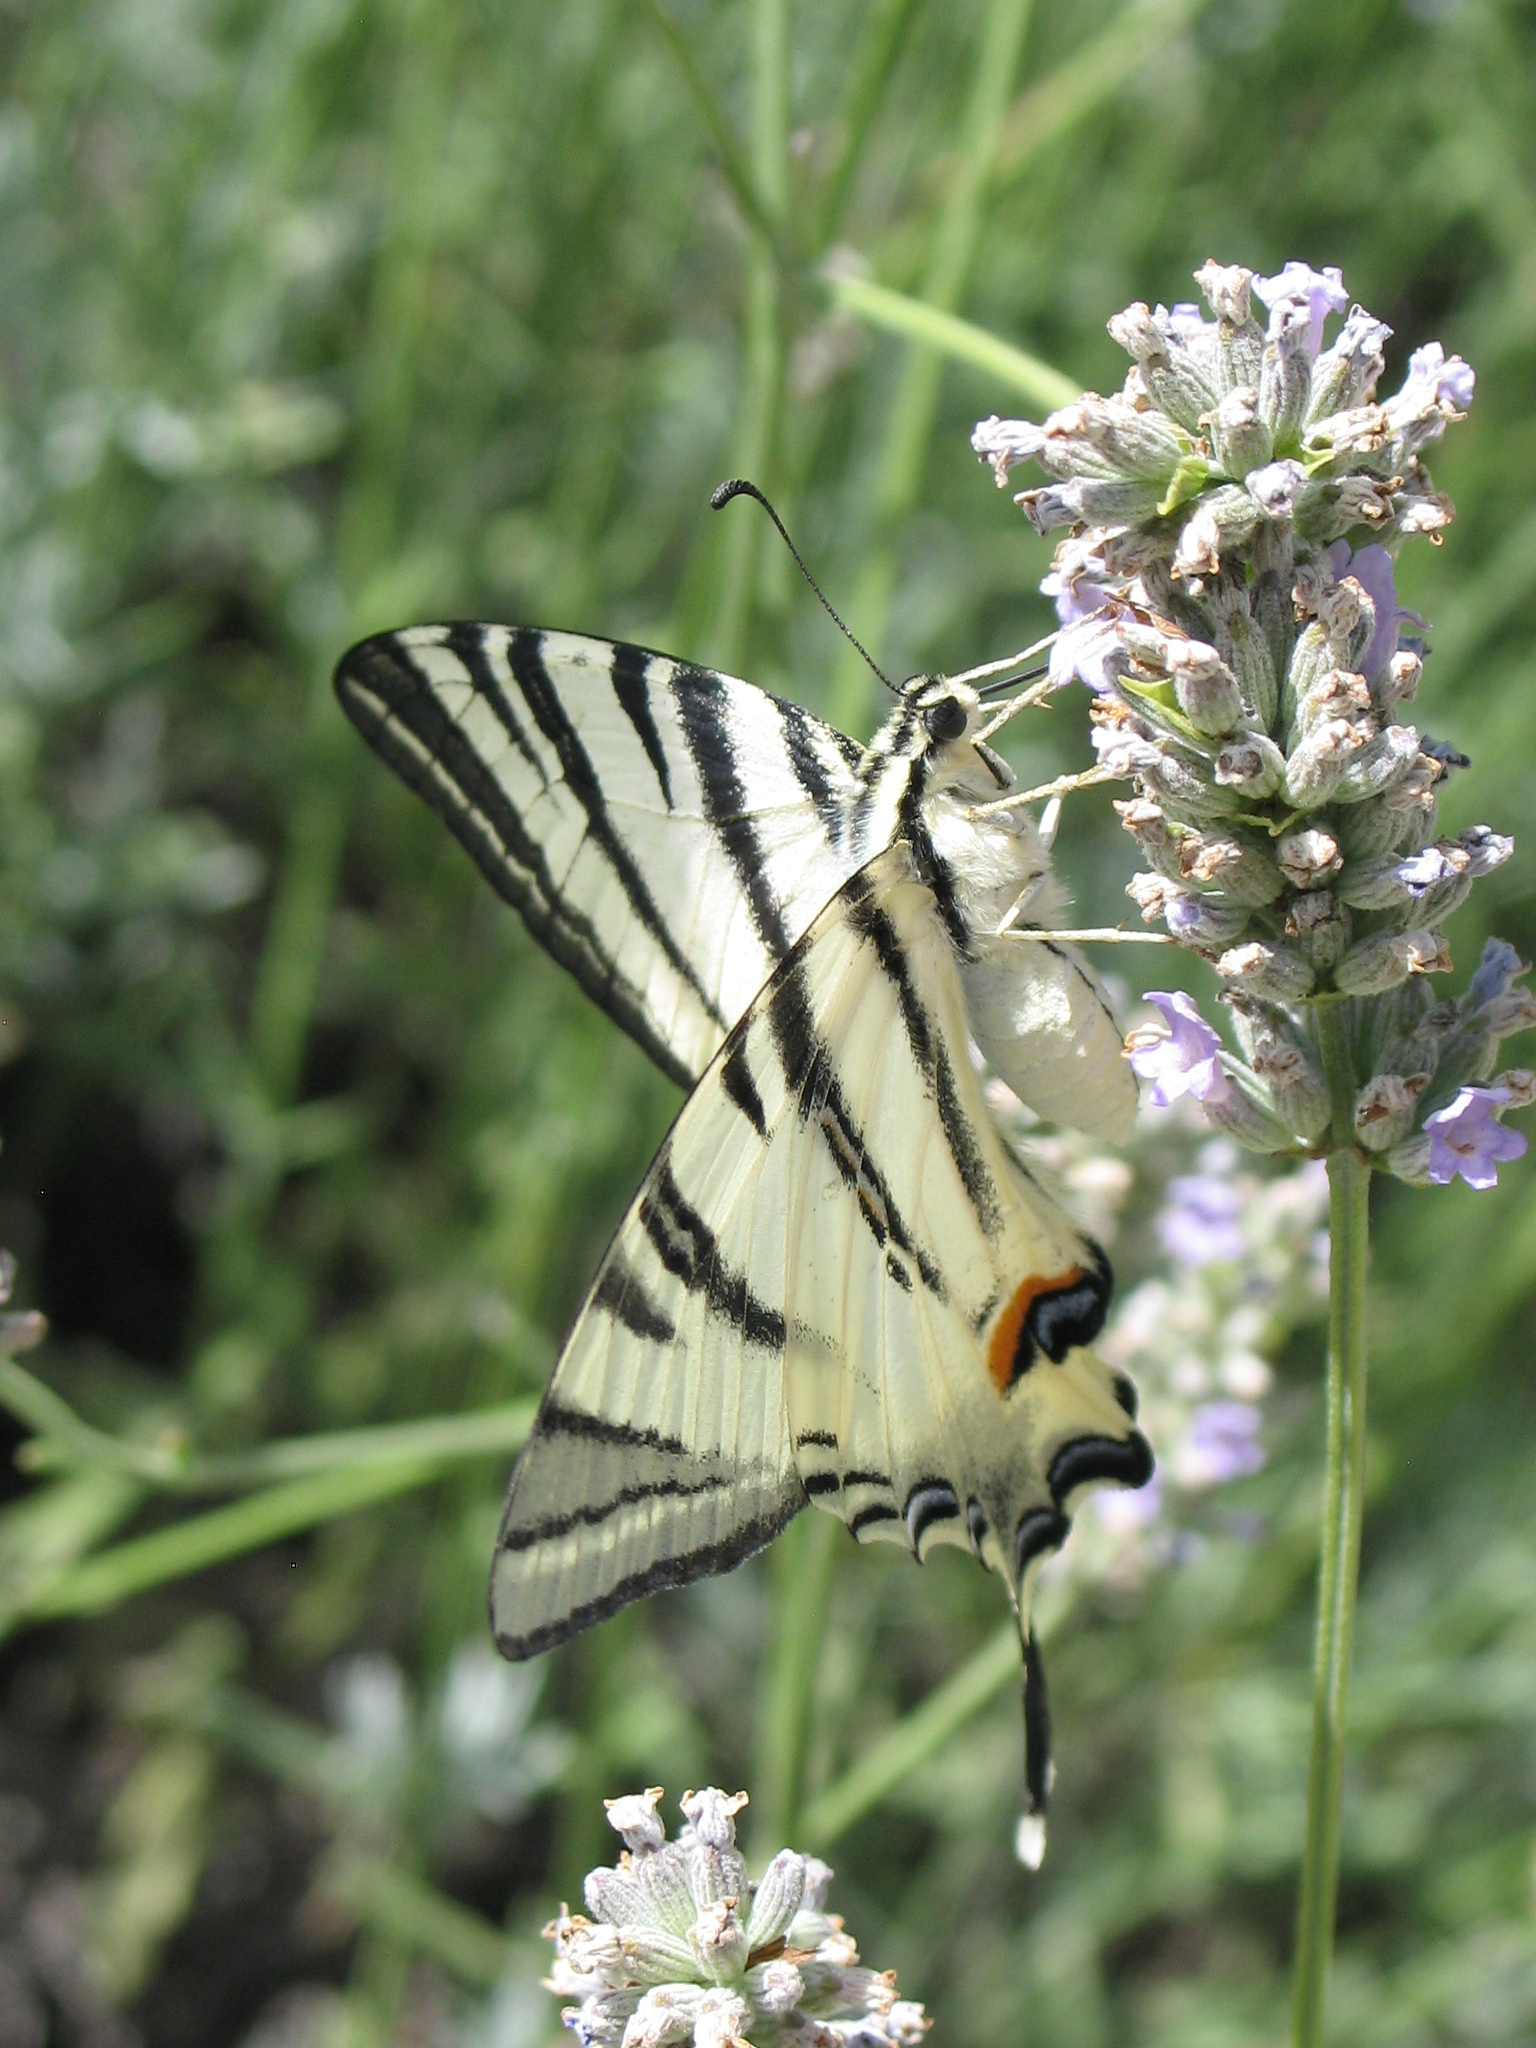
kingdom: Animalia
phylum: Arthropoda
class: Insecta
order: Lepidoptera
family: Papilionidae
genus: Iphiclides
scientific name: Iphiclides podalirius
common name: Scarce swallowtail
